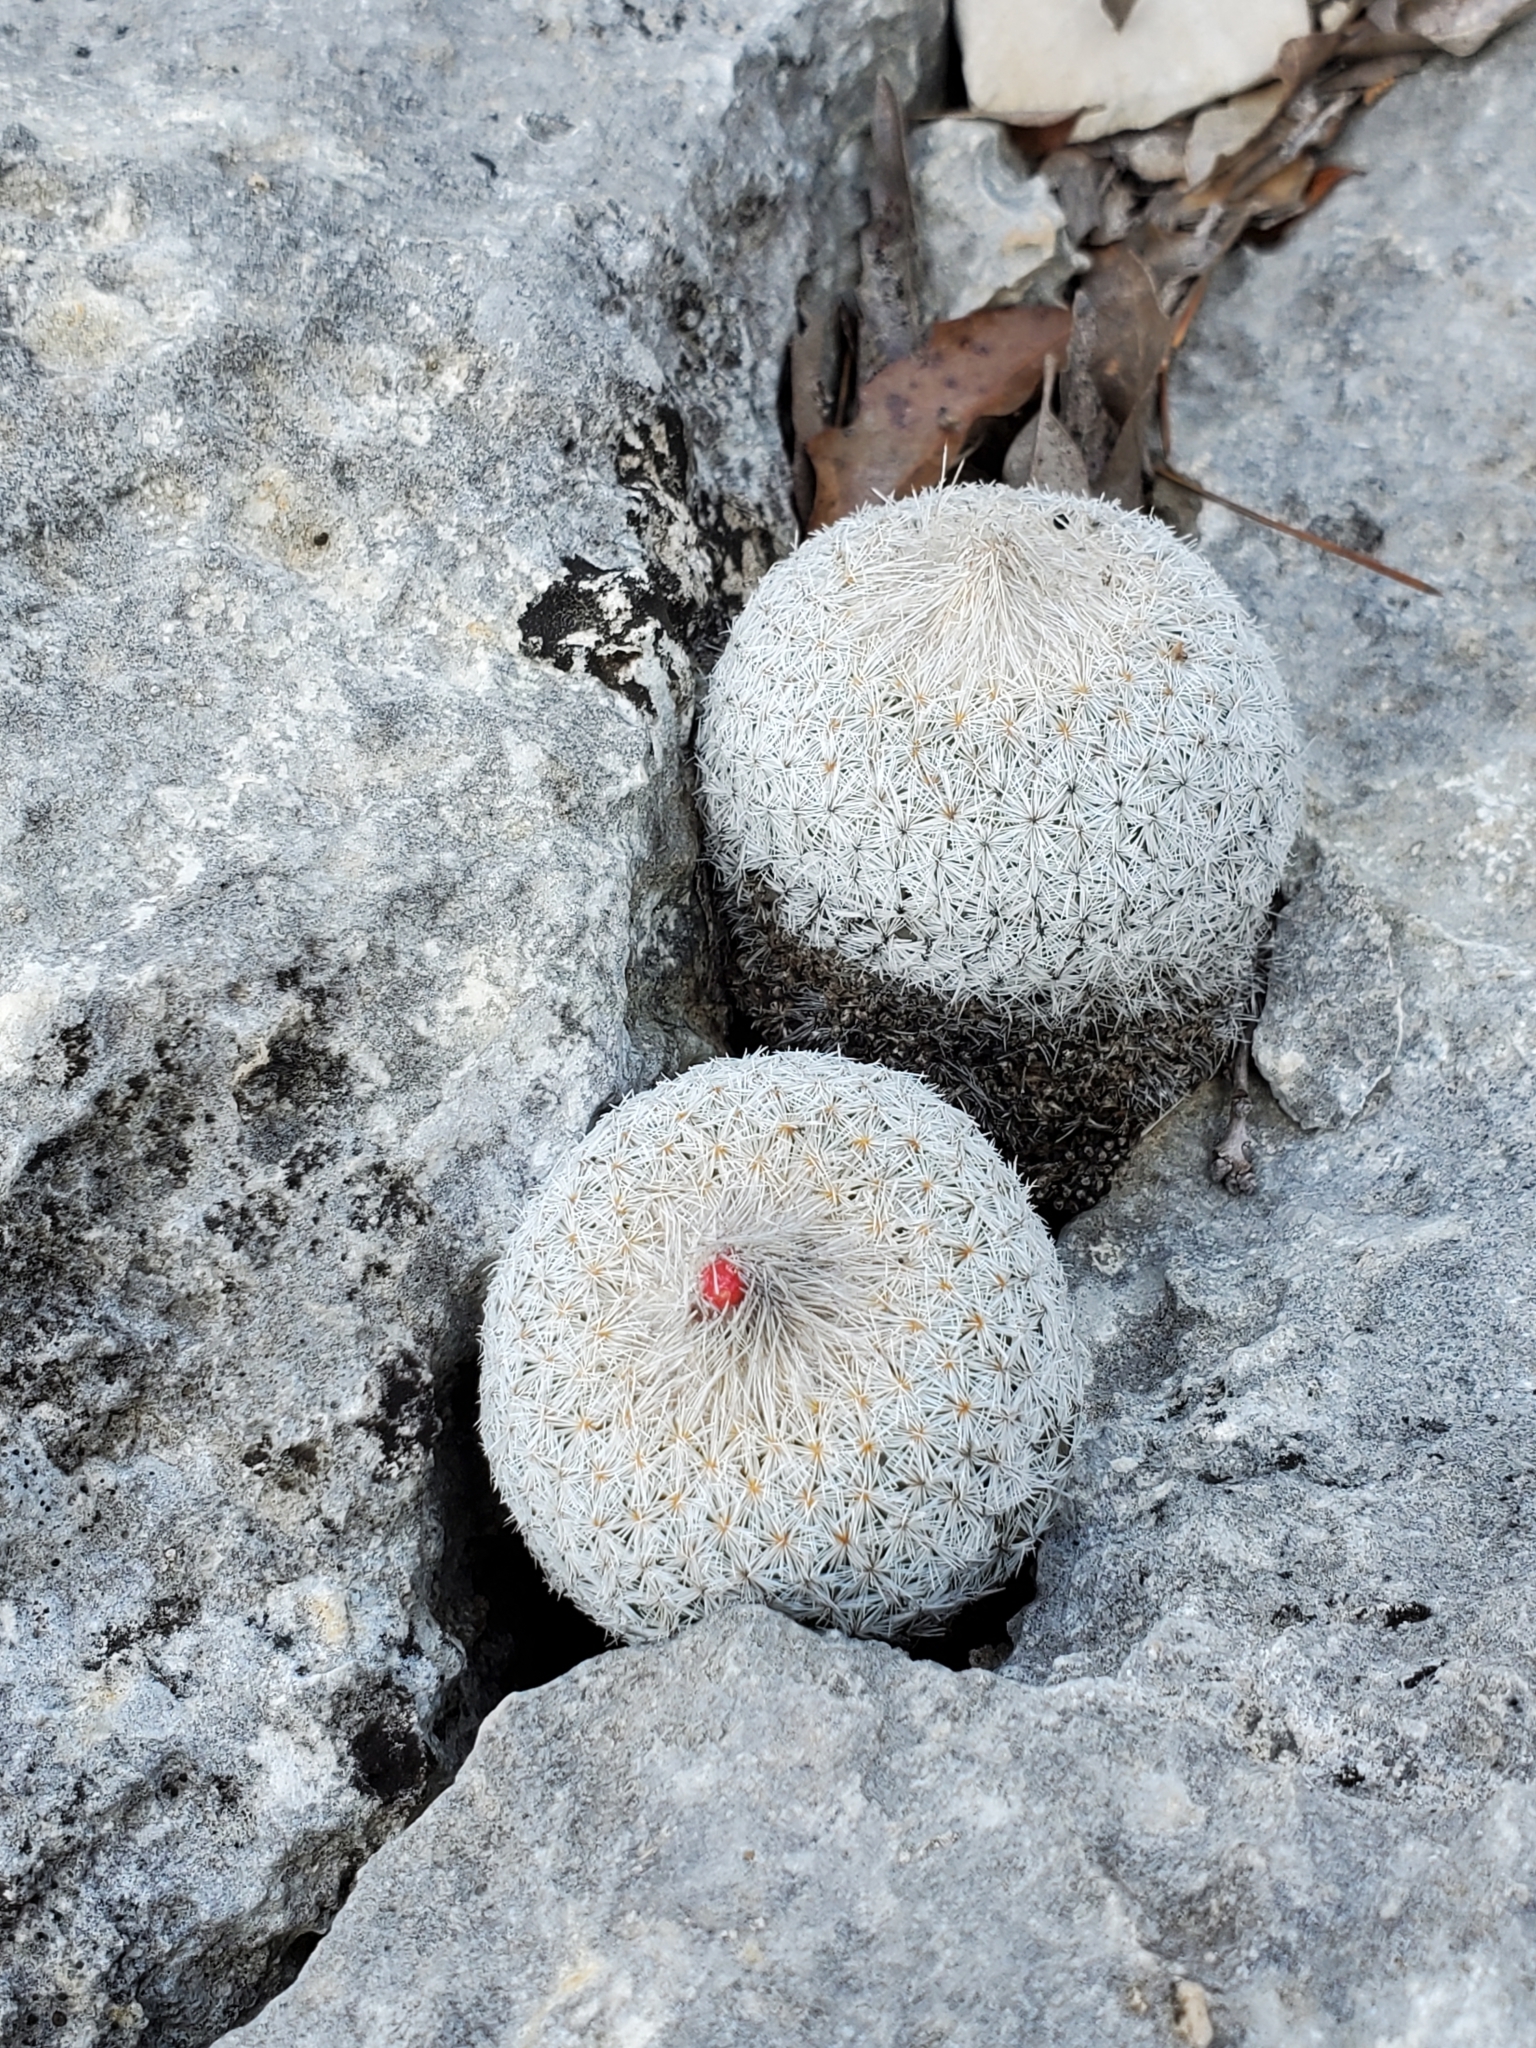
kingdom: Plantae
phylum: Tracheophyta
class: Magnoliopsida
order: Caryophyllales
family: Cactaceae
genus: Epithelantha
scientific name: Epithelantha micromeris
